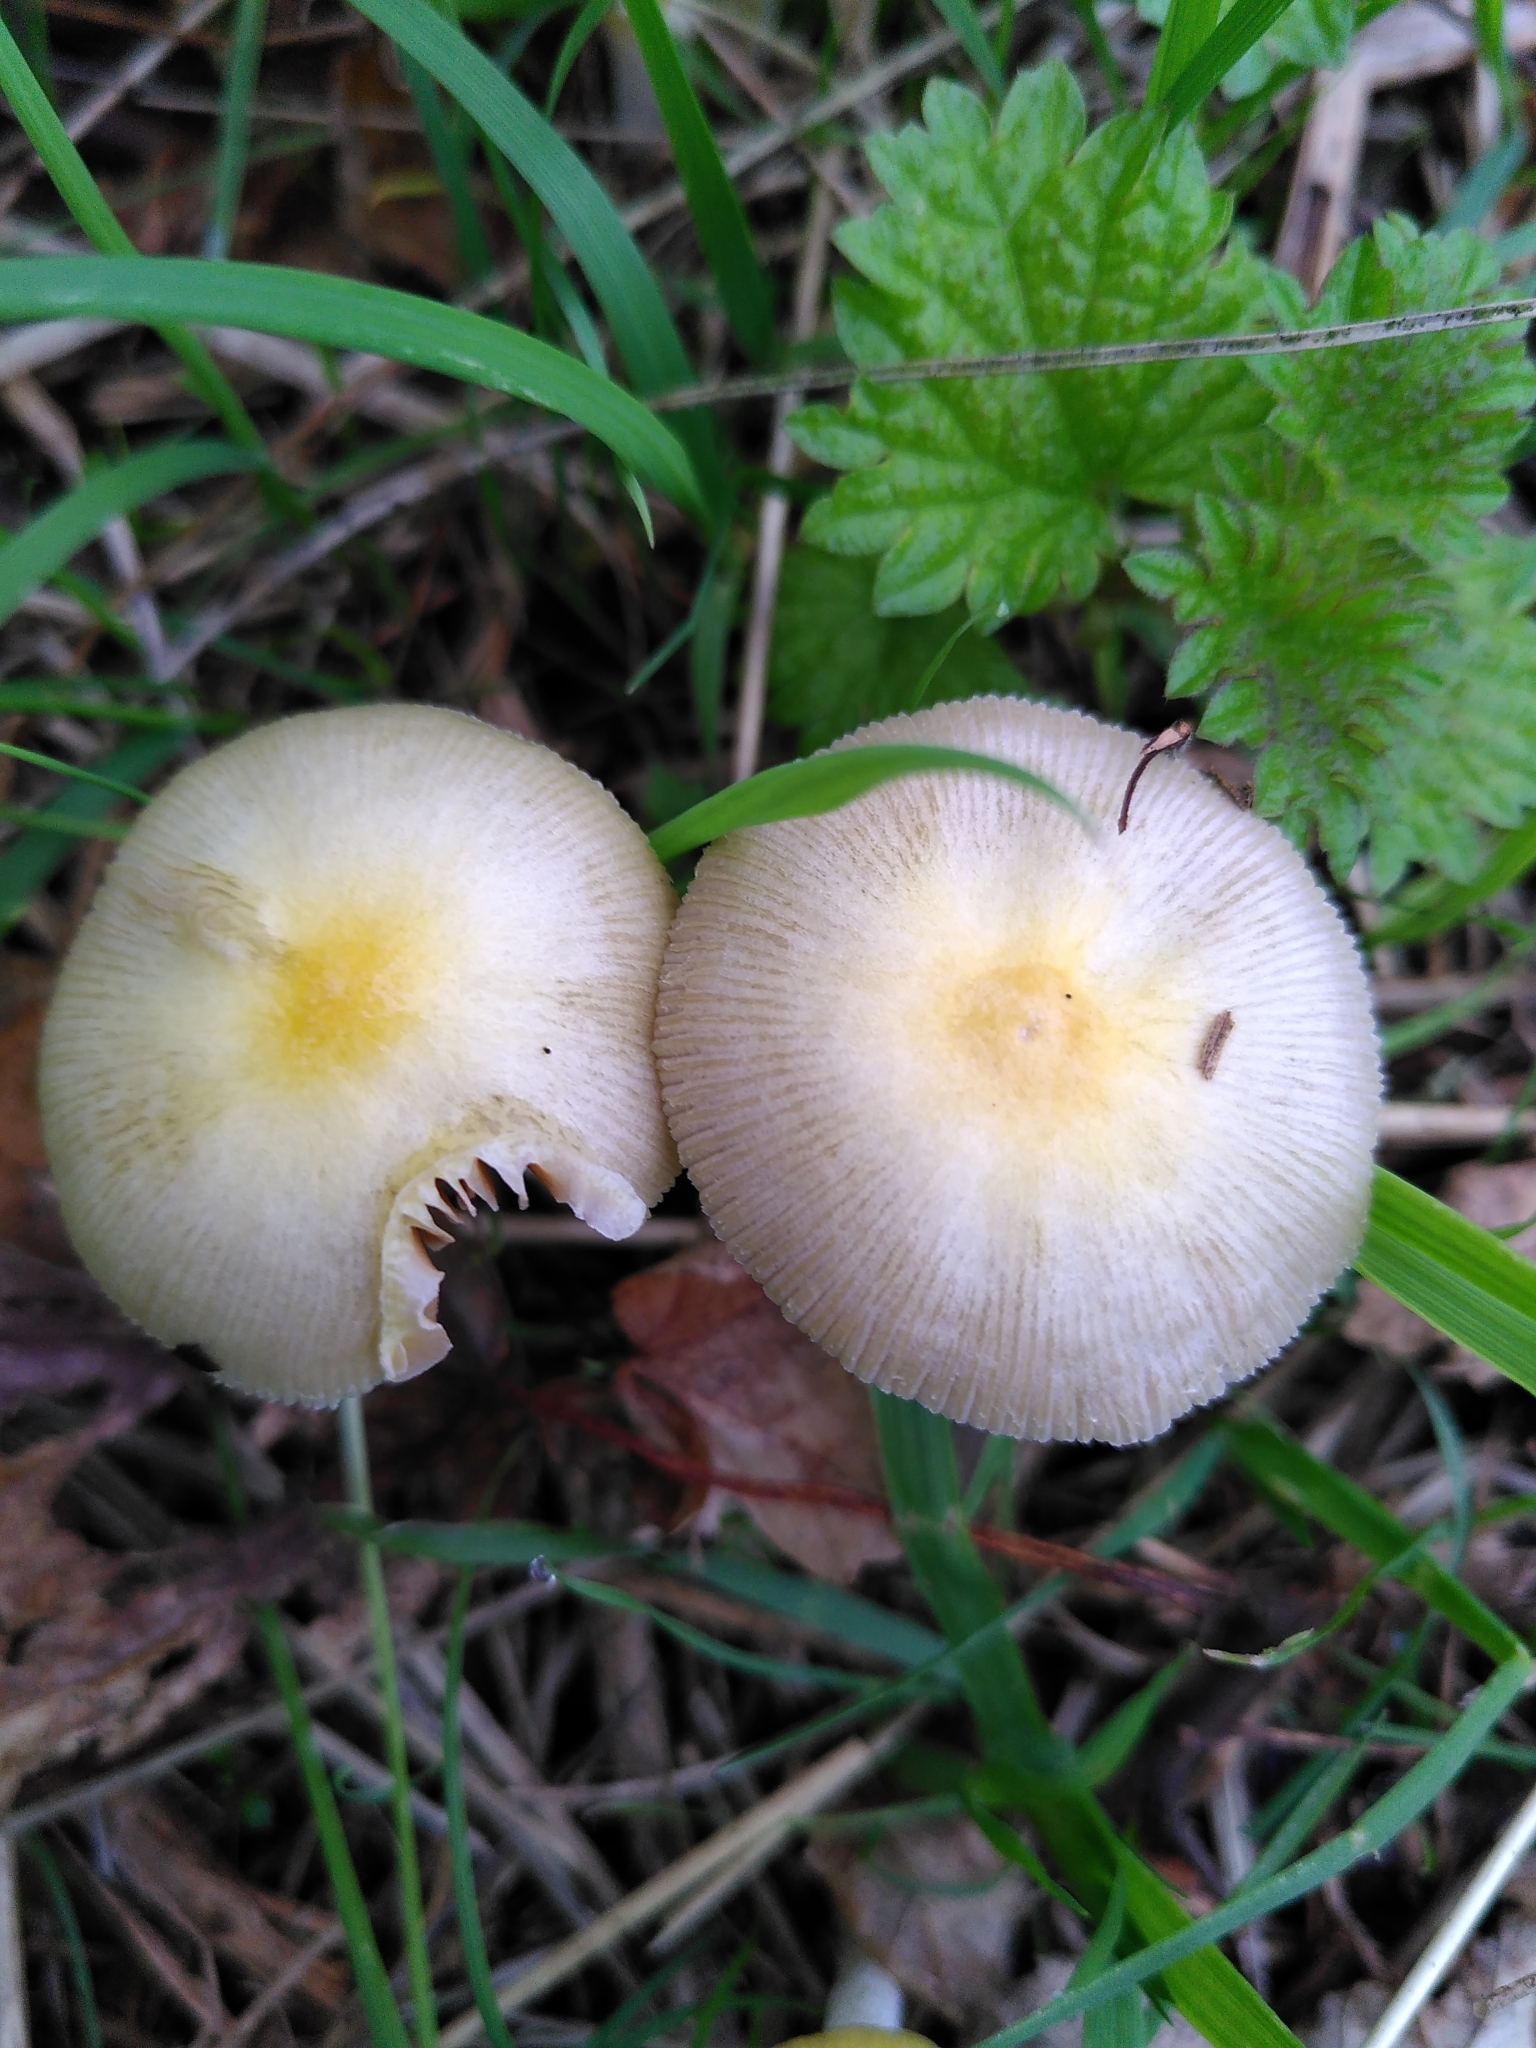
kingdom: Fungi
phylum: Basidiomycota
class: Agaricomycetes
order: Agaricales
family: Bolbitiaceae
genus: Bolbitius
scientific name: Bolbitius titubans
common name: Yellow fieldcap
